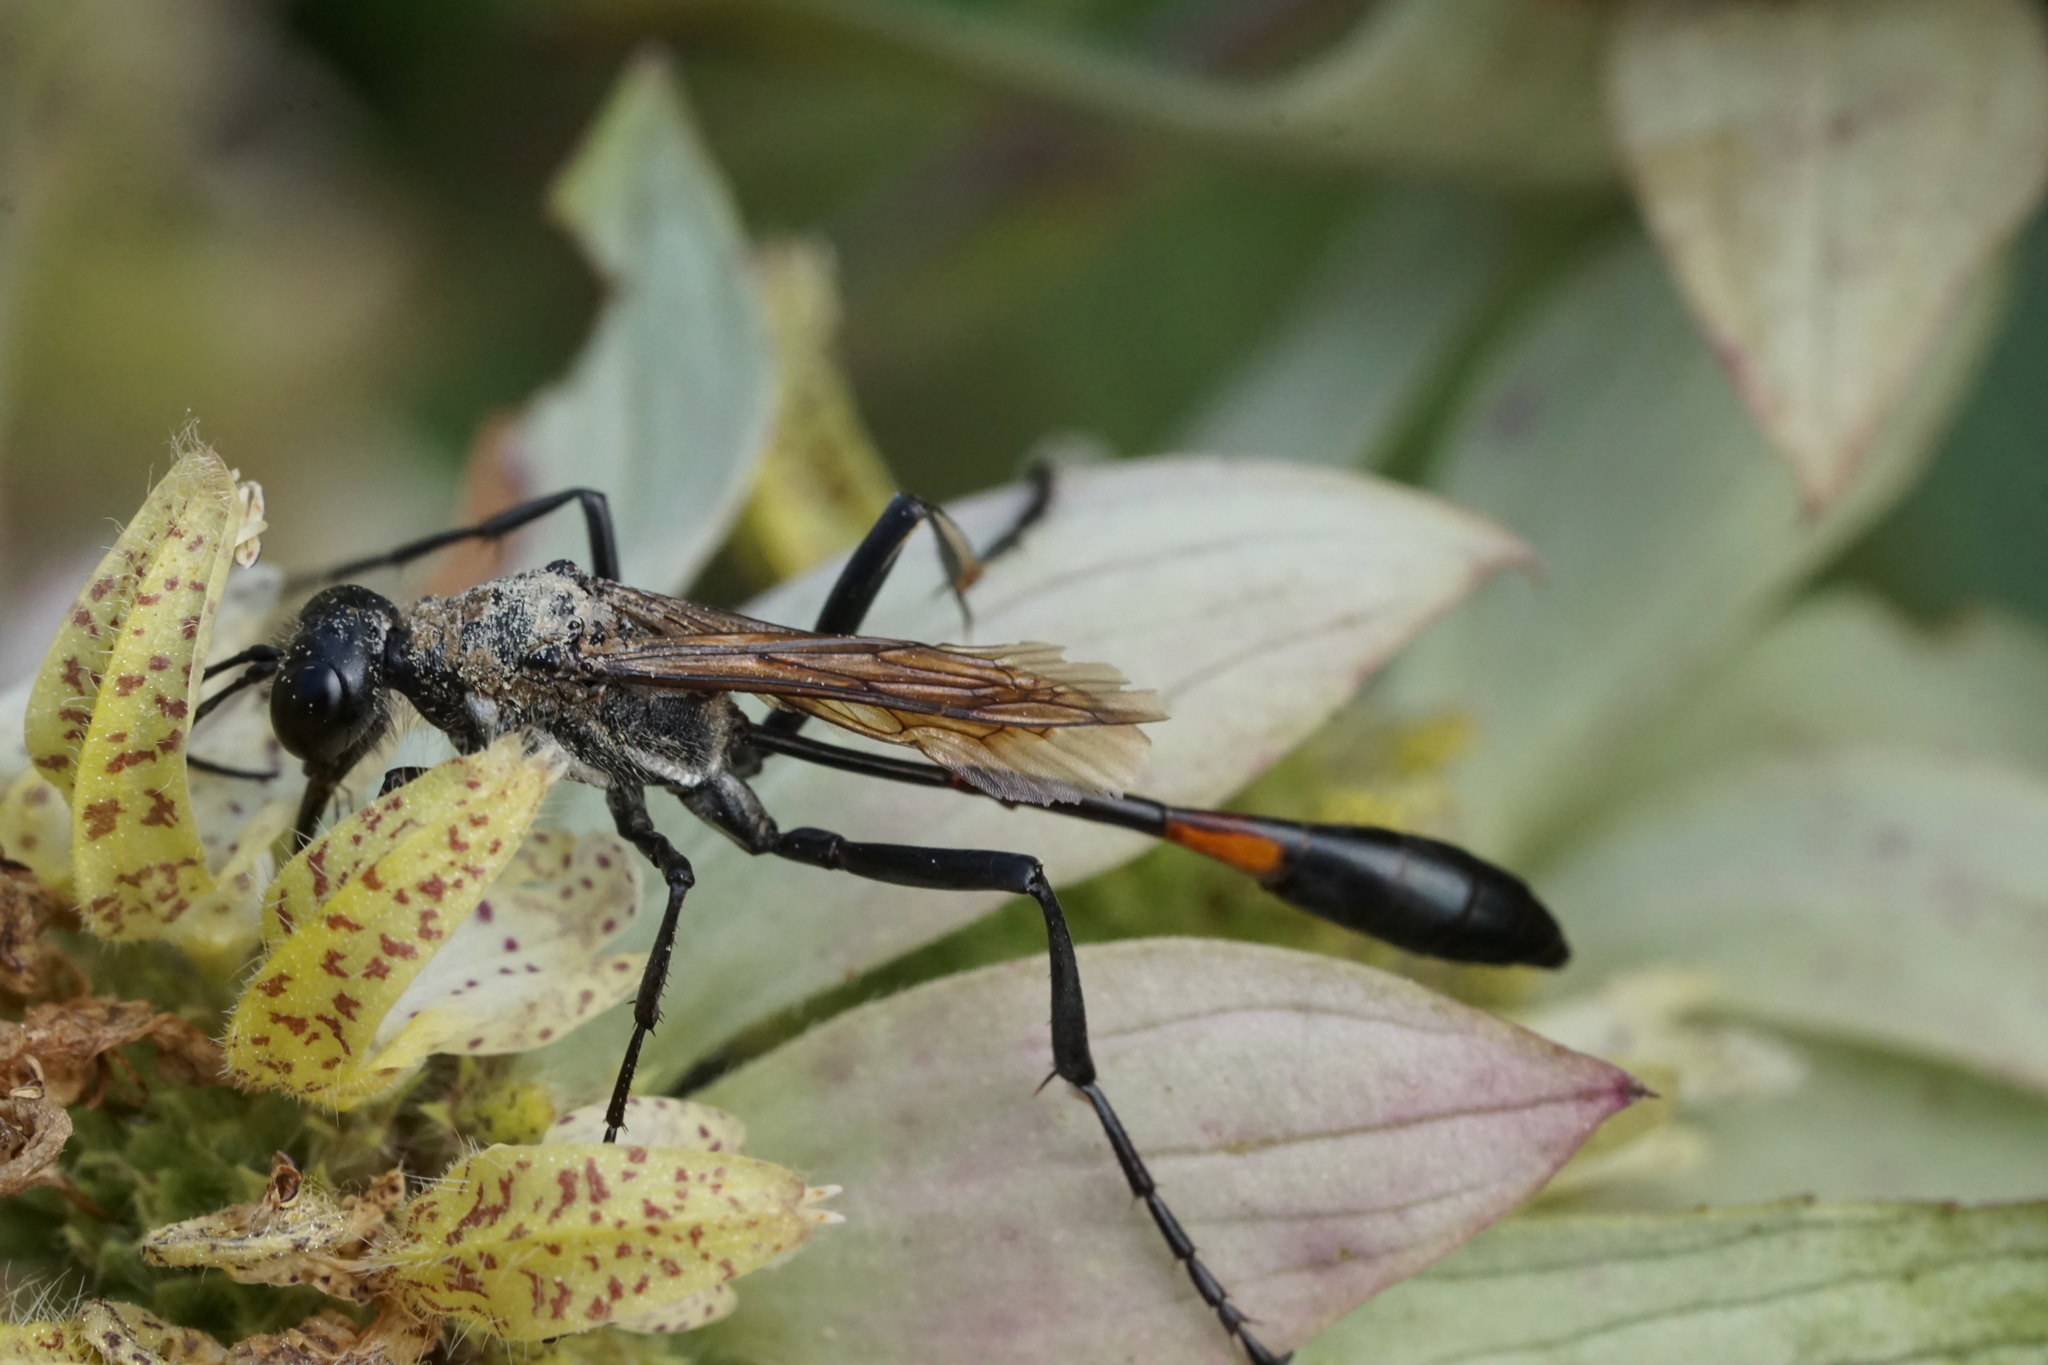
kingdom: Animalia
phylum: Arthropoda
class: Insecta
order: Hymenoptera
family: Sphecidae
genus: Ammophila
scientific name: Ammophila procera
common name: Common thread-waisted wasp
